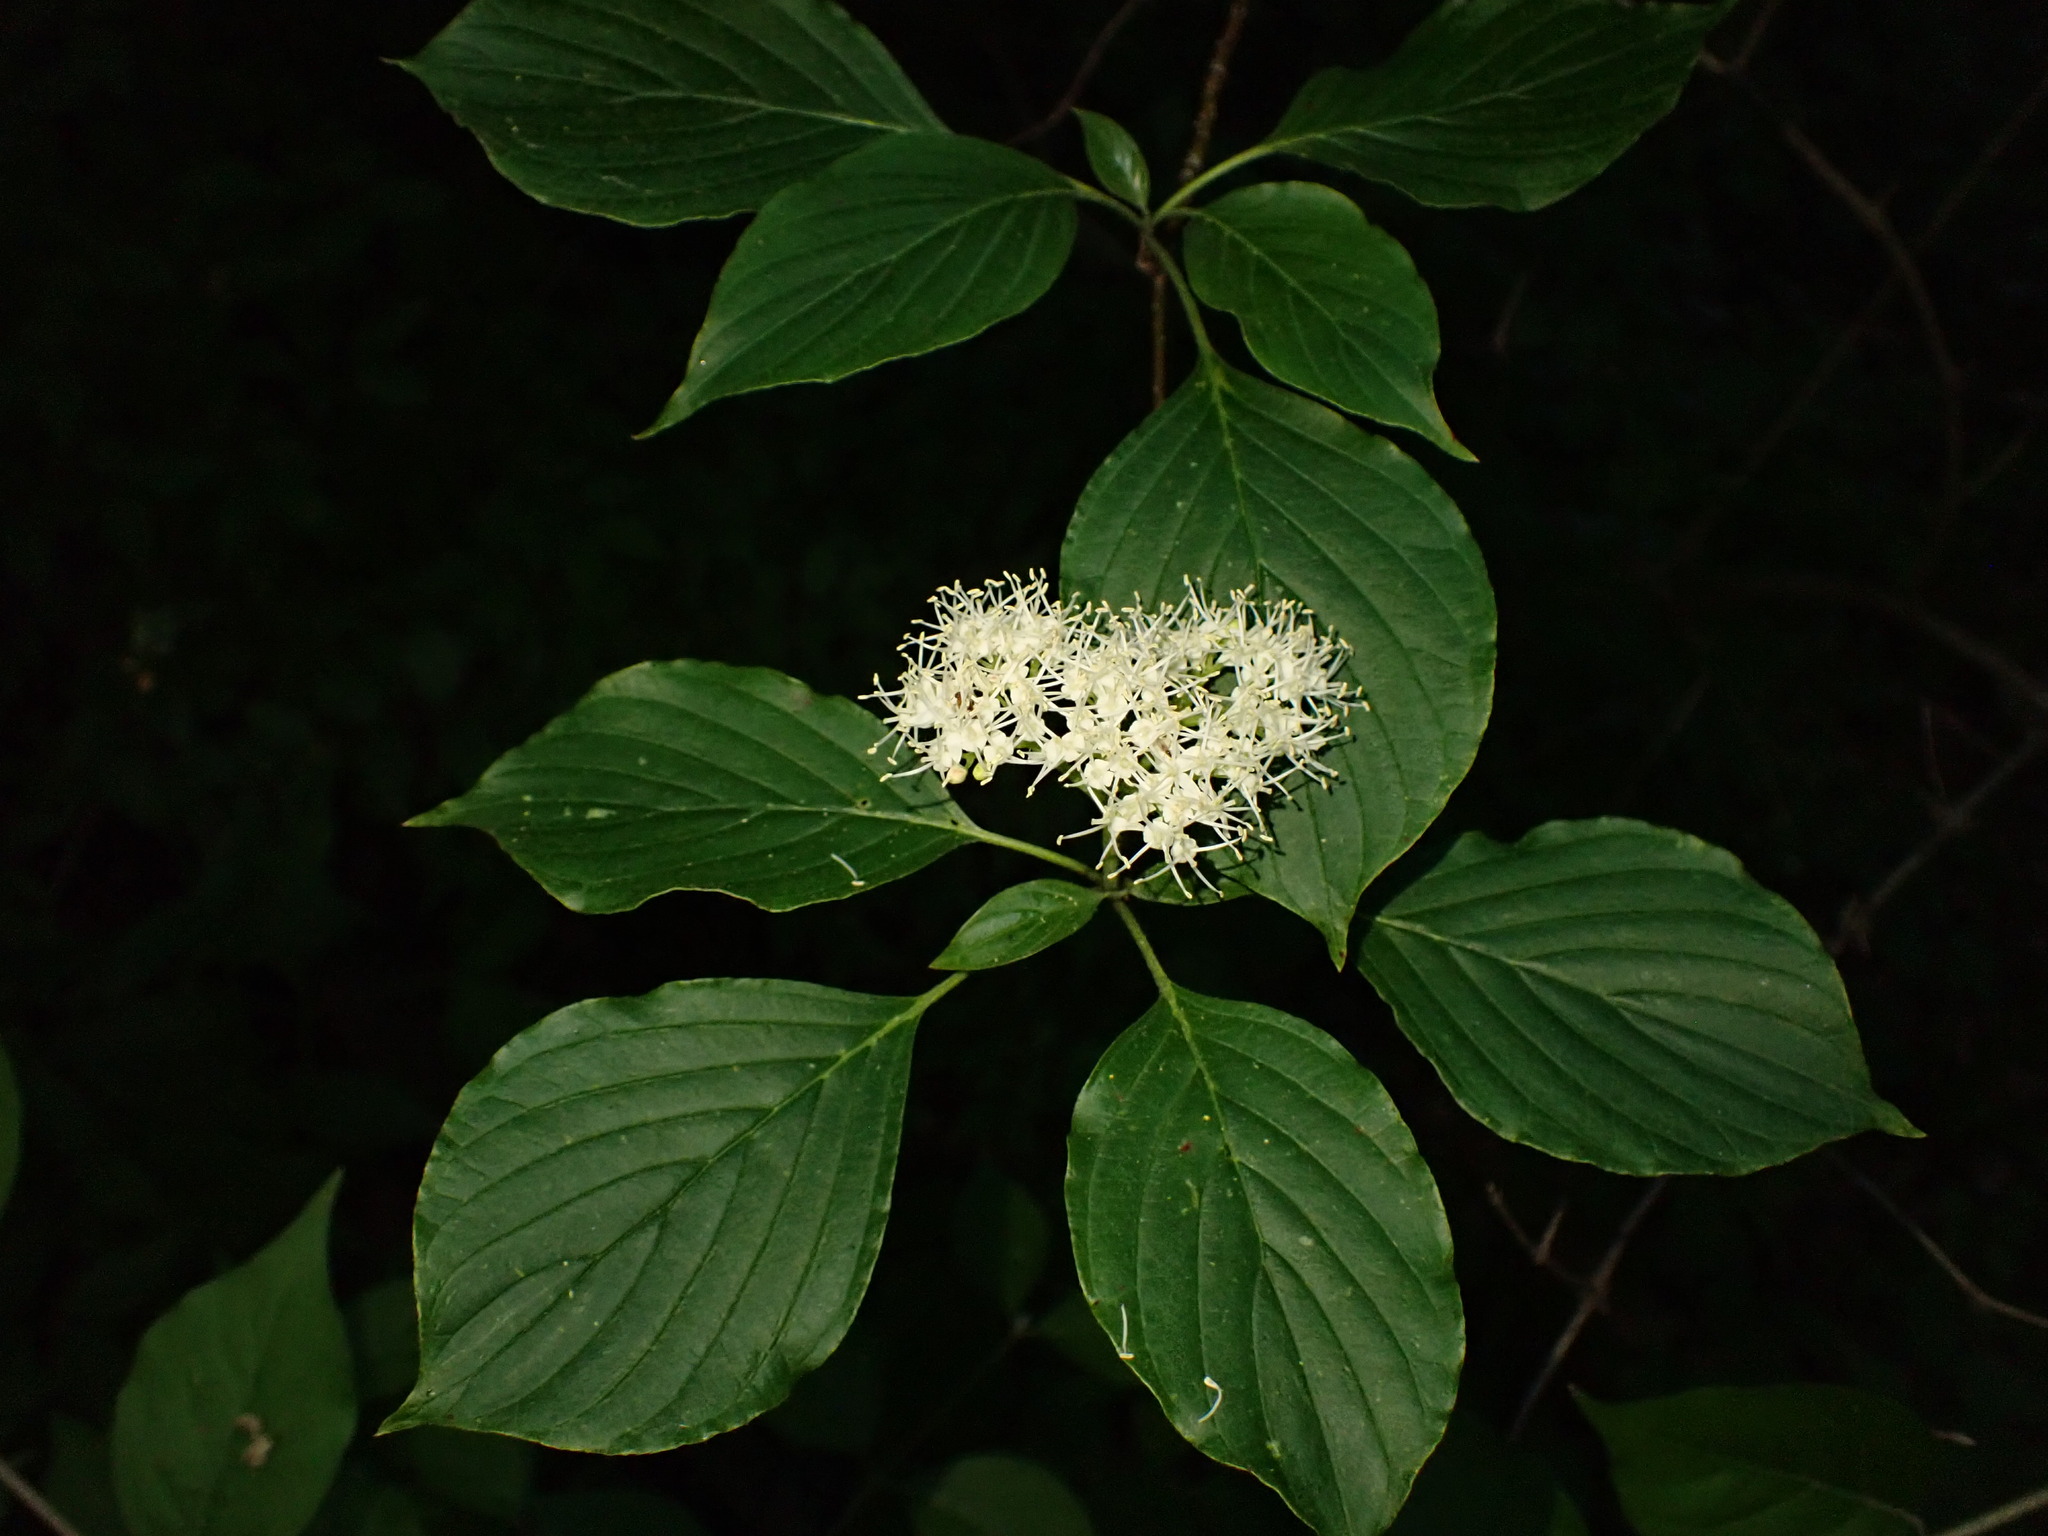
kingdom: Plantae
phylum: Tracheophyta
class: Magnoliopsida
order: Cornales
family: Cornaceae
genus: Cornus
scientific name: Cornus alternifolia
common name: Pagoda dogwood
